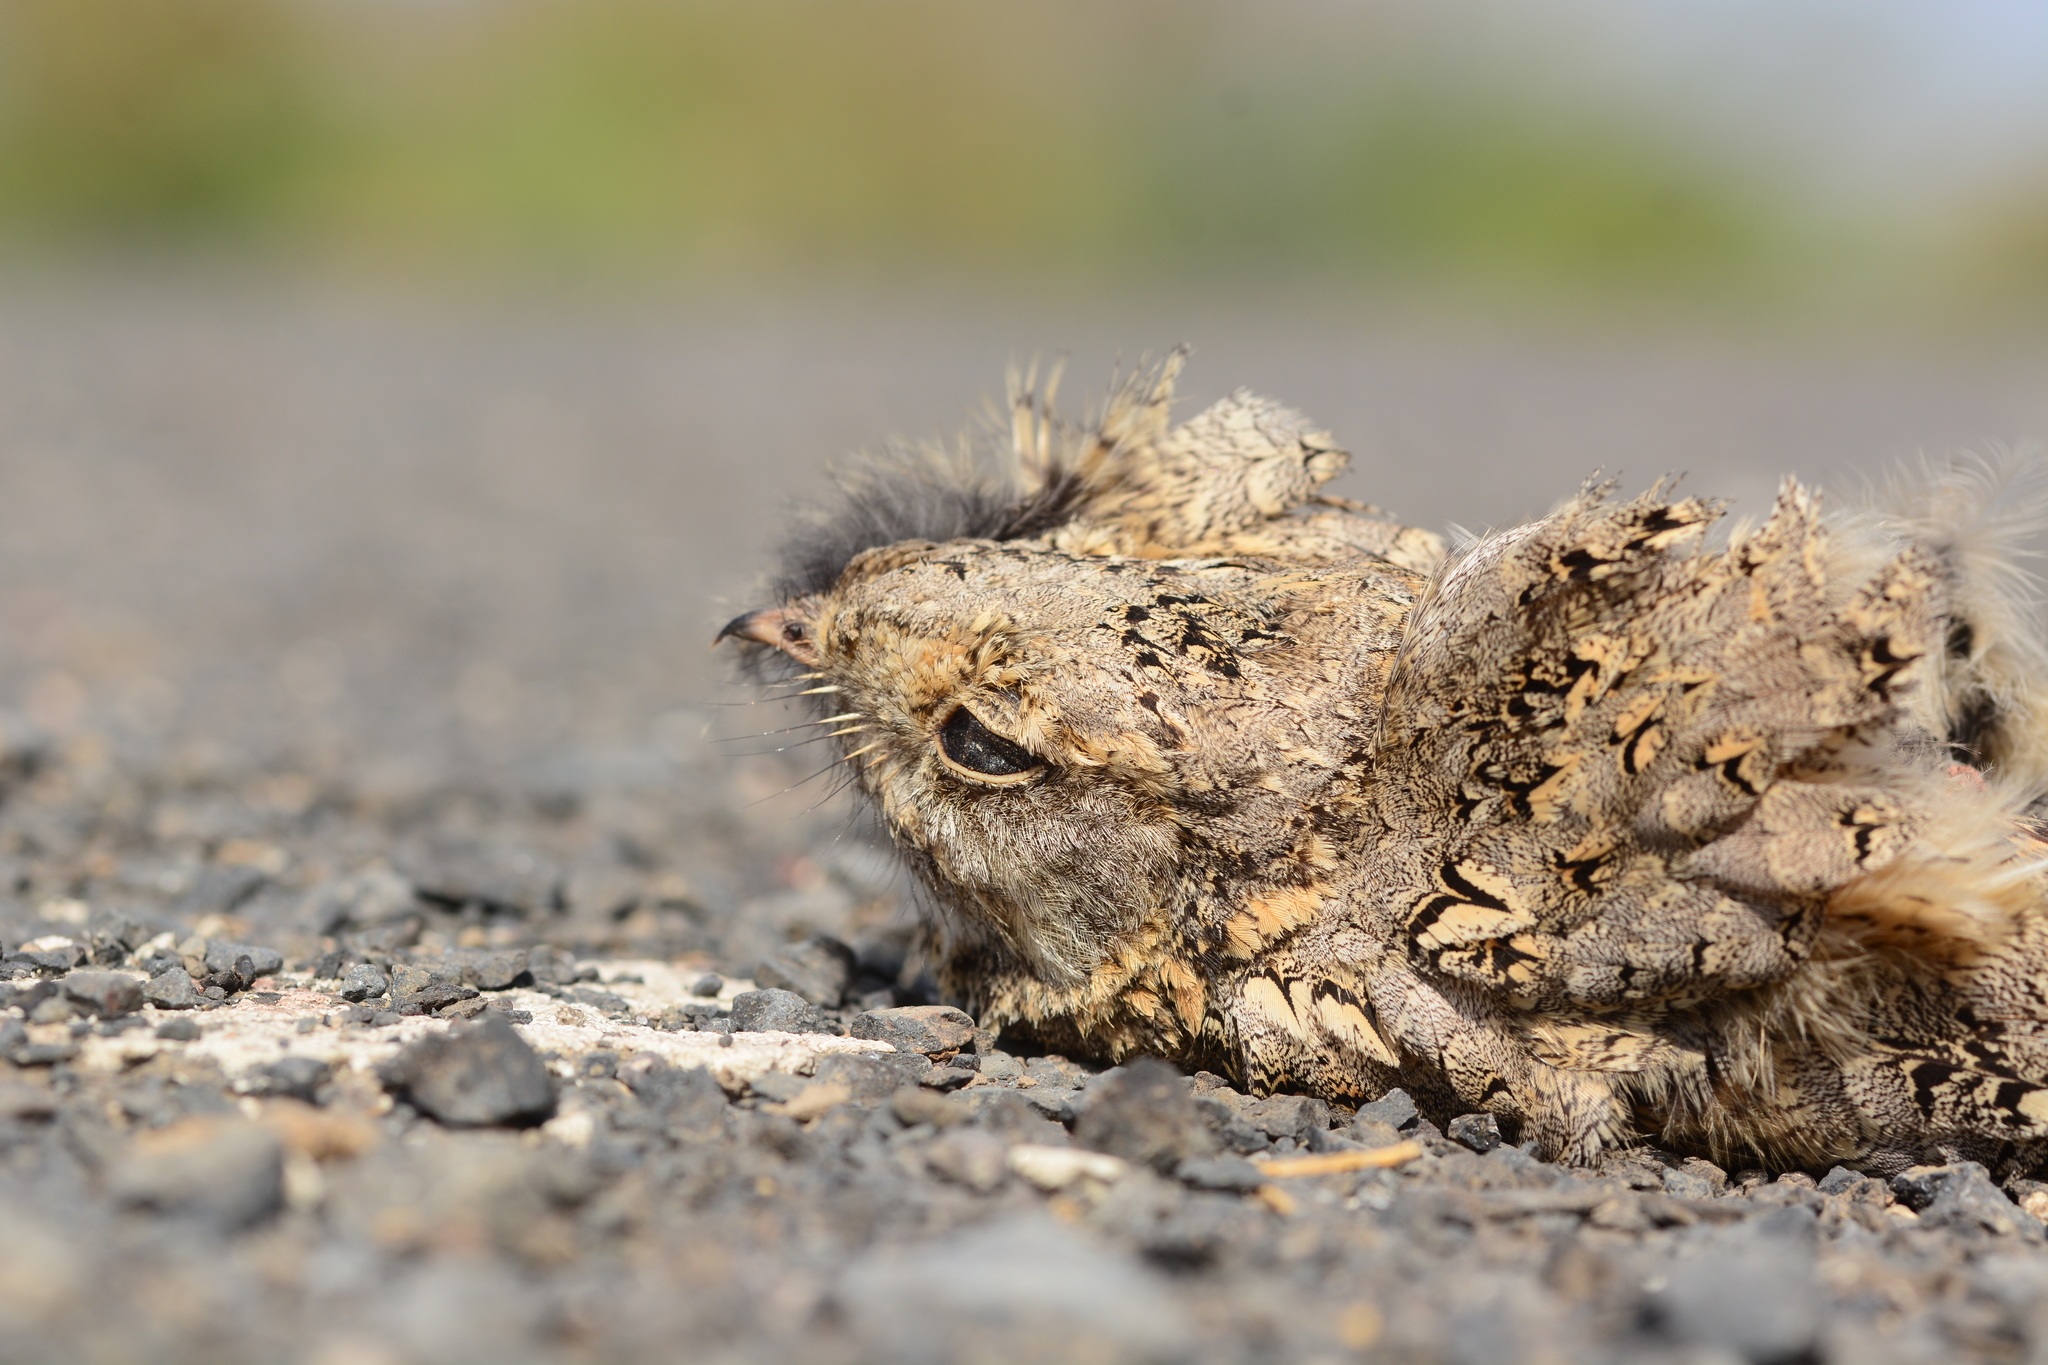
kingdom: Animalia
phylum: Chordata
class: Aves
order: Caprimulgiformes
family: Caprimulgidae
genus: Caprimulgus
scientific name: Caprimulgus affinis
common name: Savanna nightjar
